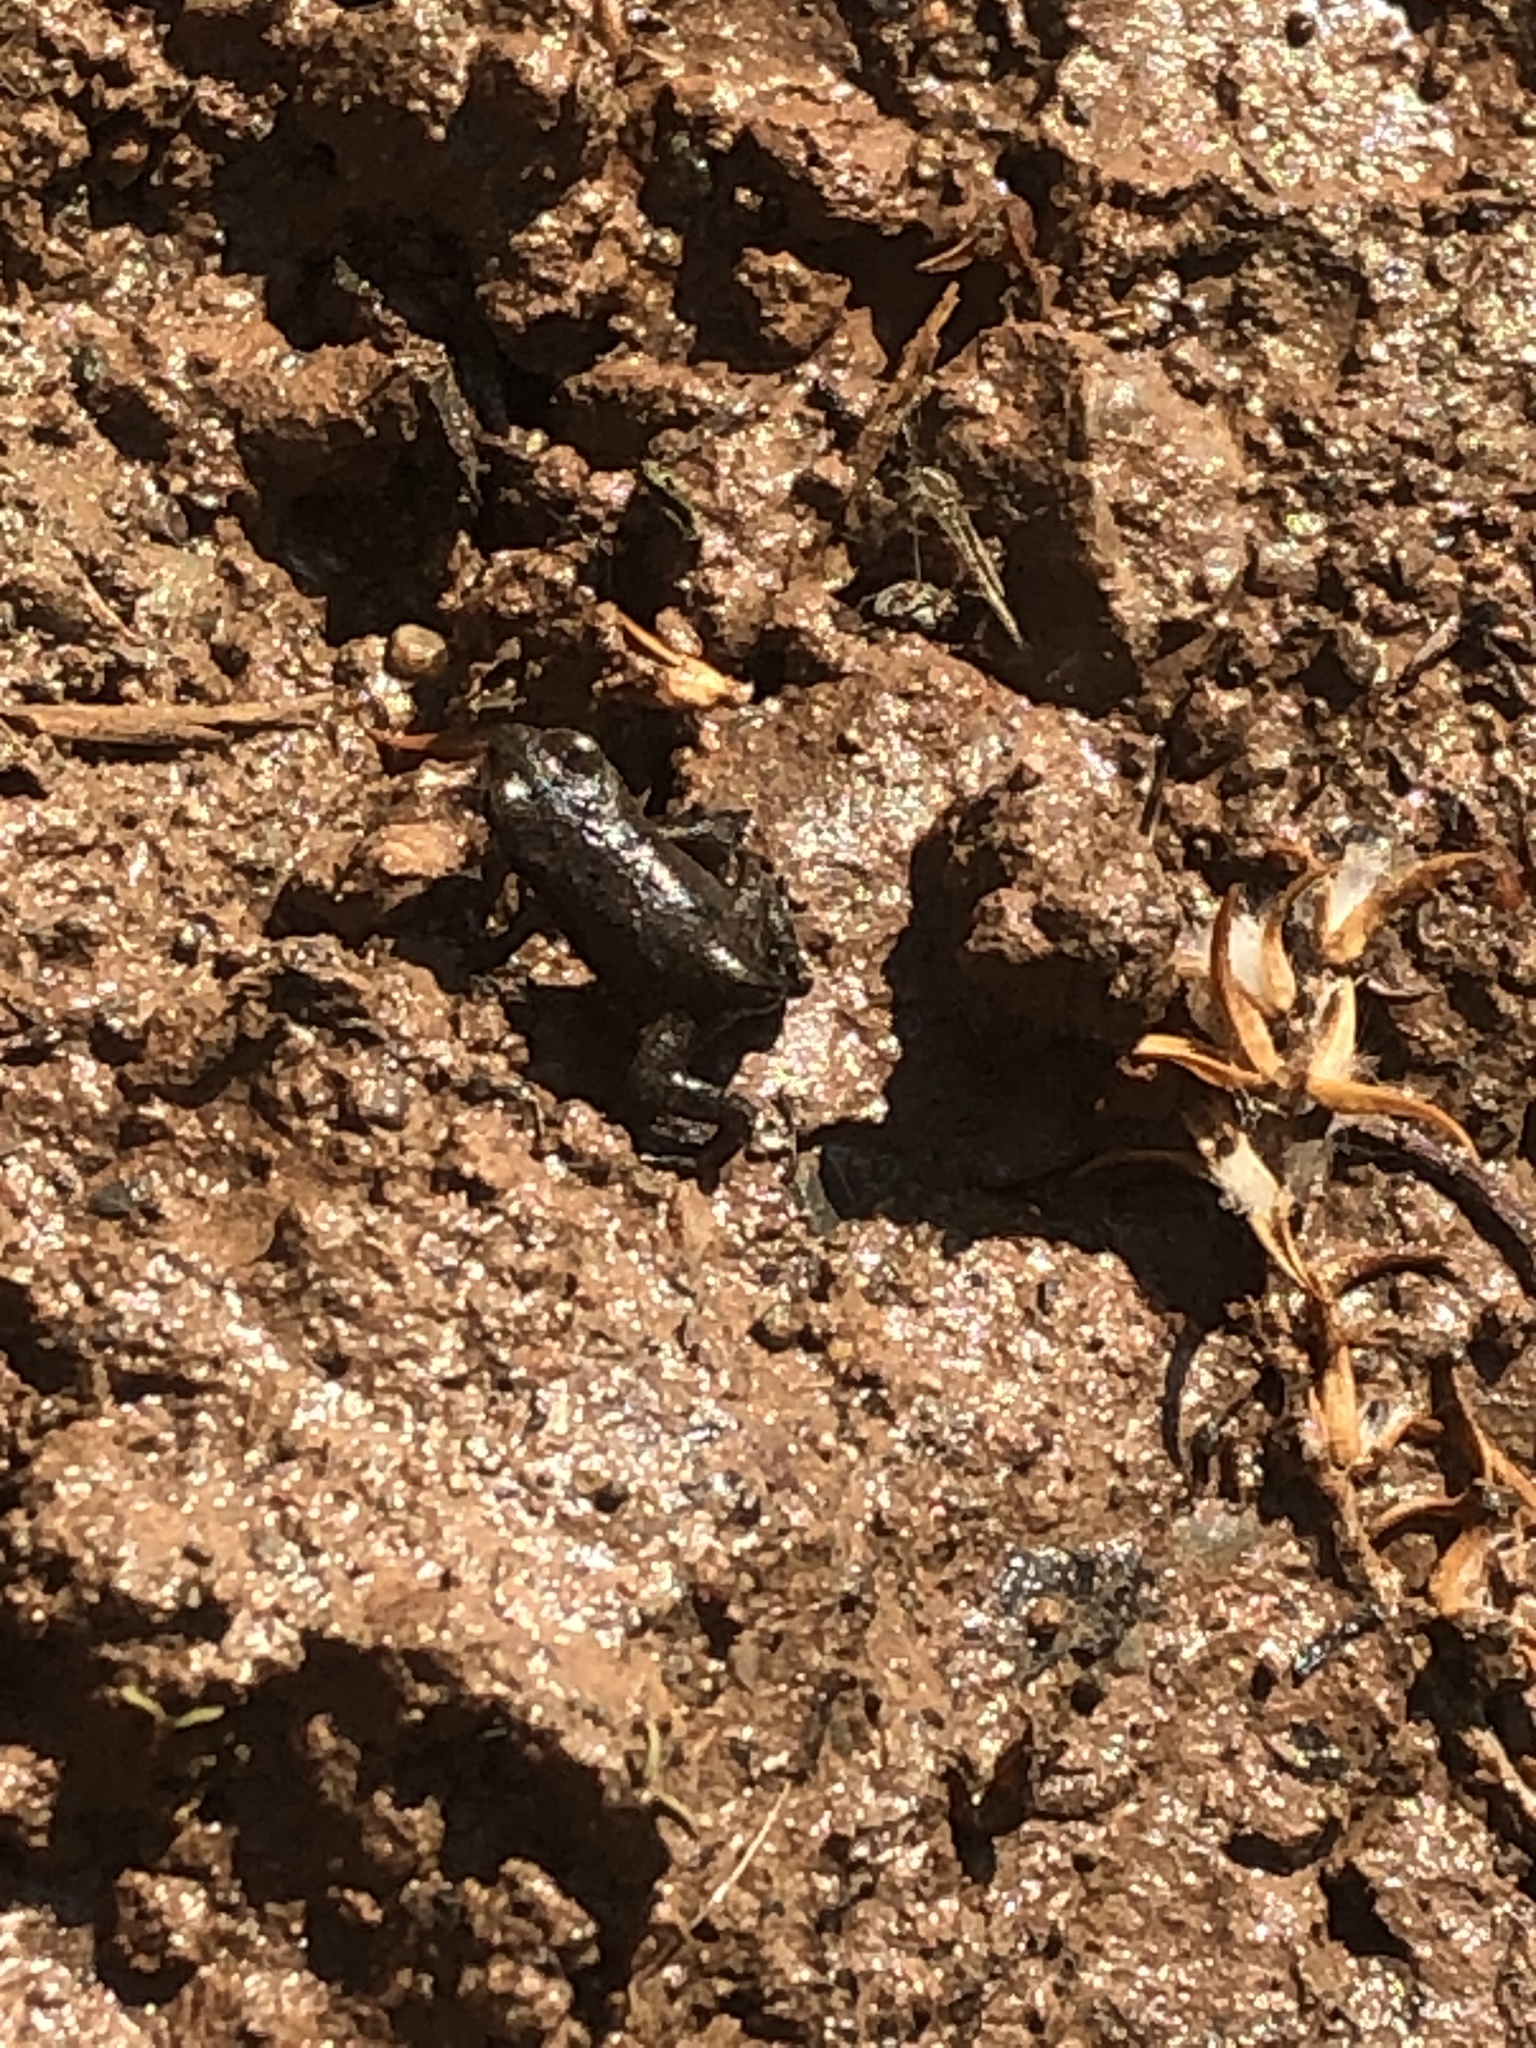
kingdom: Animalia
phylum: Chordata
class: Amphibia
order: Anura
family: Bufonidae
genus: Bufo
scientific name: Bufo bufo
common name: Common toad
